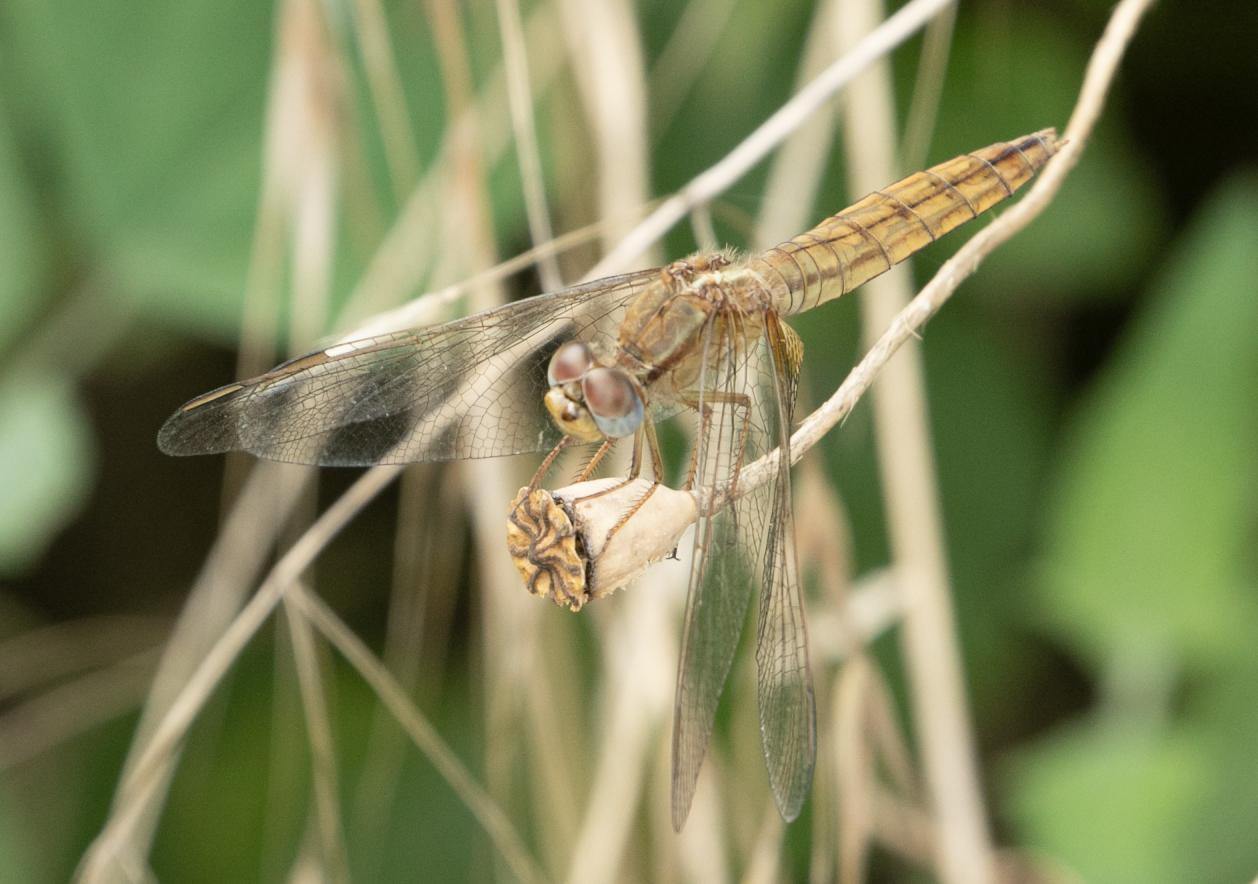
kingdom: Animalia
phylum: Arthropoda
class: Insecta
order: Odonata
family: Libellulidae
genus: Crocothemis
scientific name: Crocothemis erythraea
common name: Scarlet dragonfly
